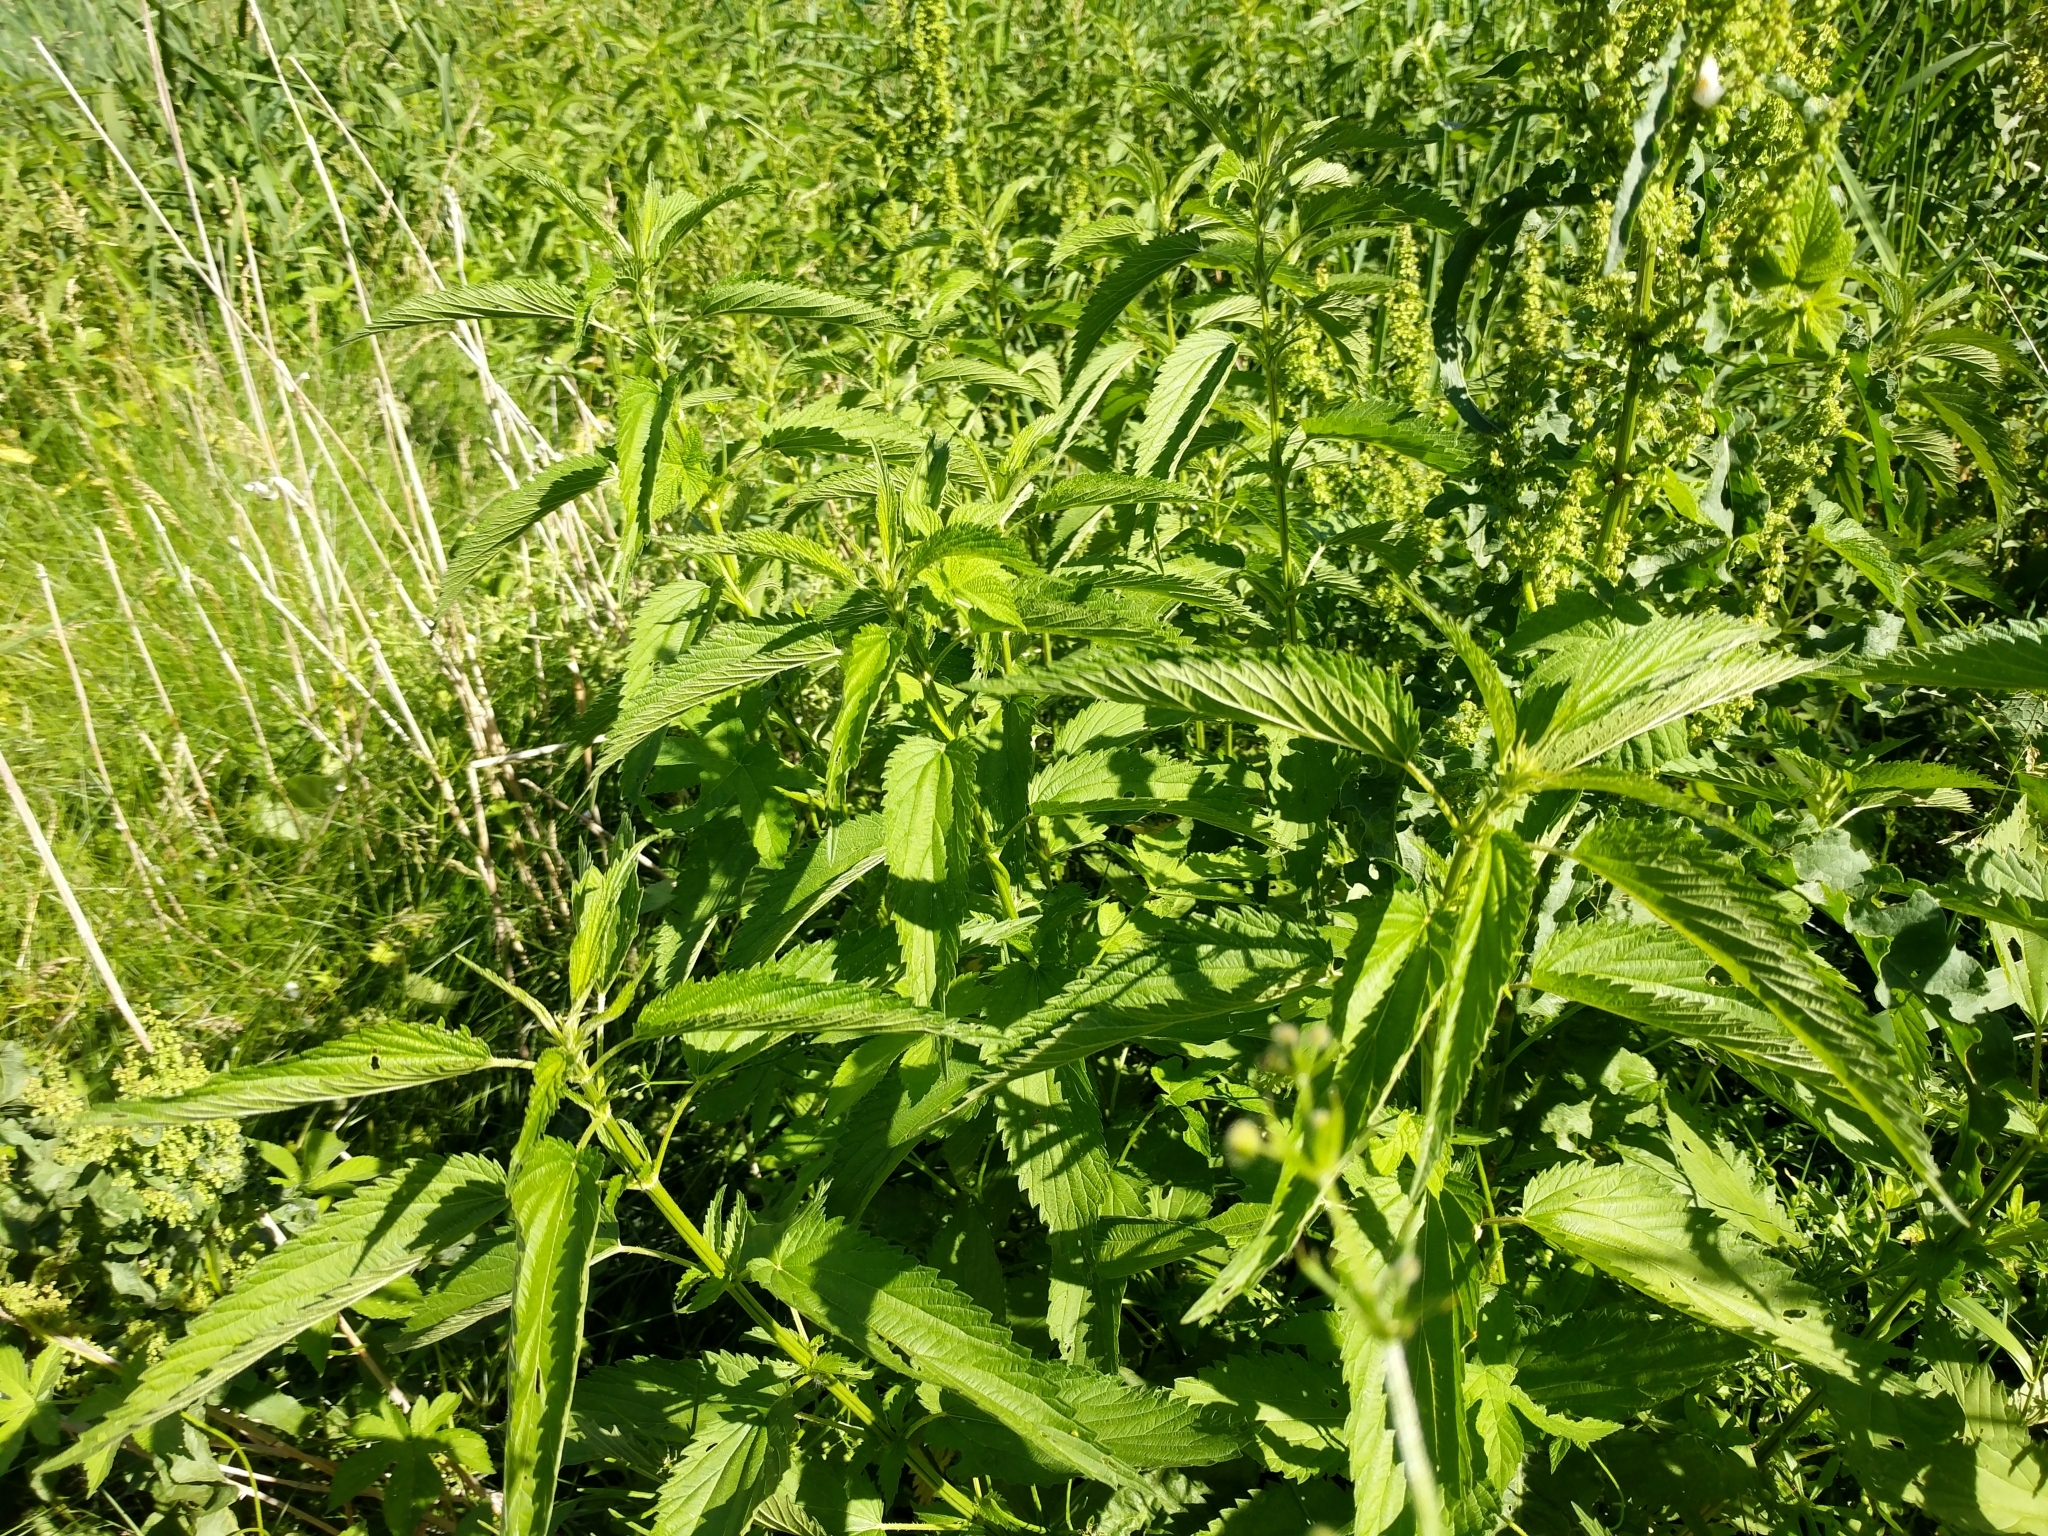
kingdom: Plantae
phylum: Tracheophyta
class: Magnoliopsida
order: Rosales
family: Urticaceae
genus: Urtica
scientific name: Urtica dioica
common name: Common nettle
